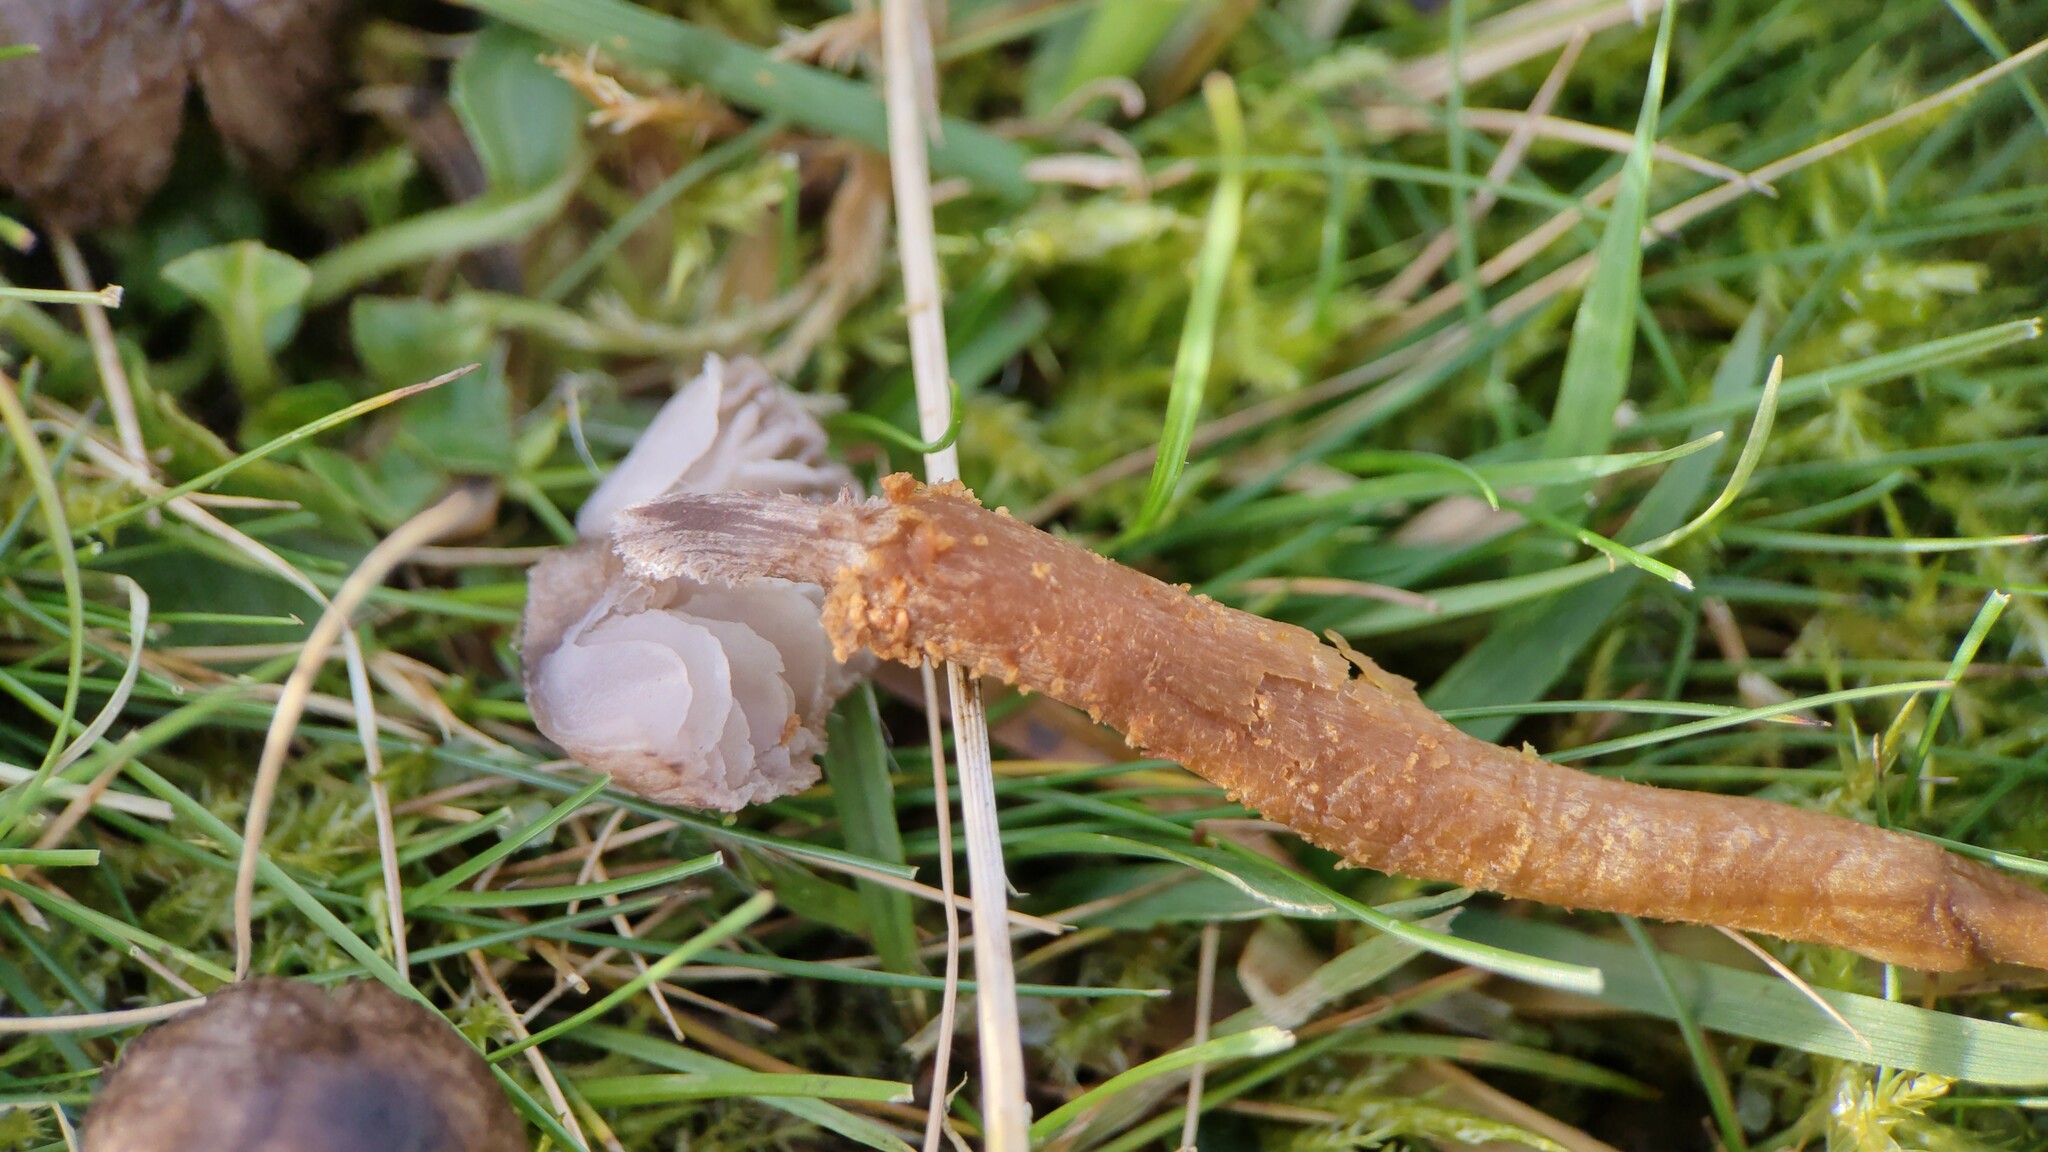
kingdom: Fungi
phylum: Basidiomycota
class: Agaricomycetes
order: Agaricales
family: Tricholomataceae
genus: Squamanita
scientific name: Squamanita paradoxa
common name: Powdercap strangler
